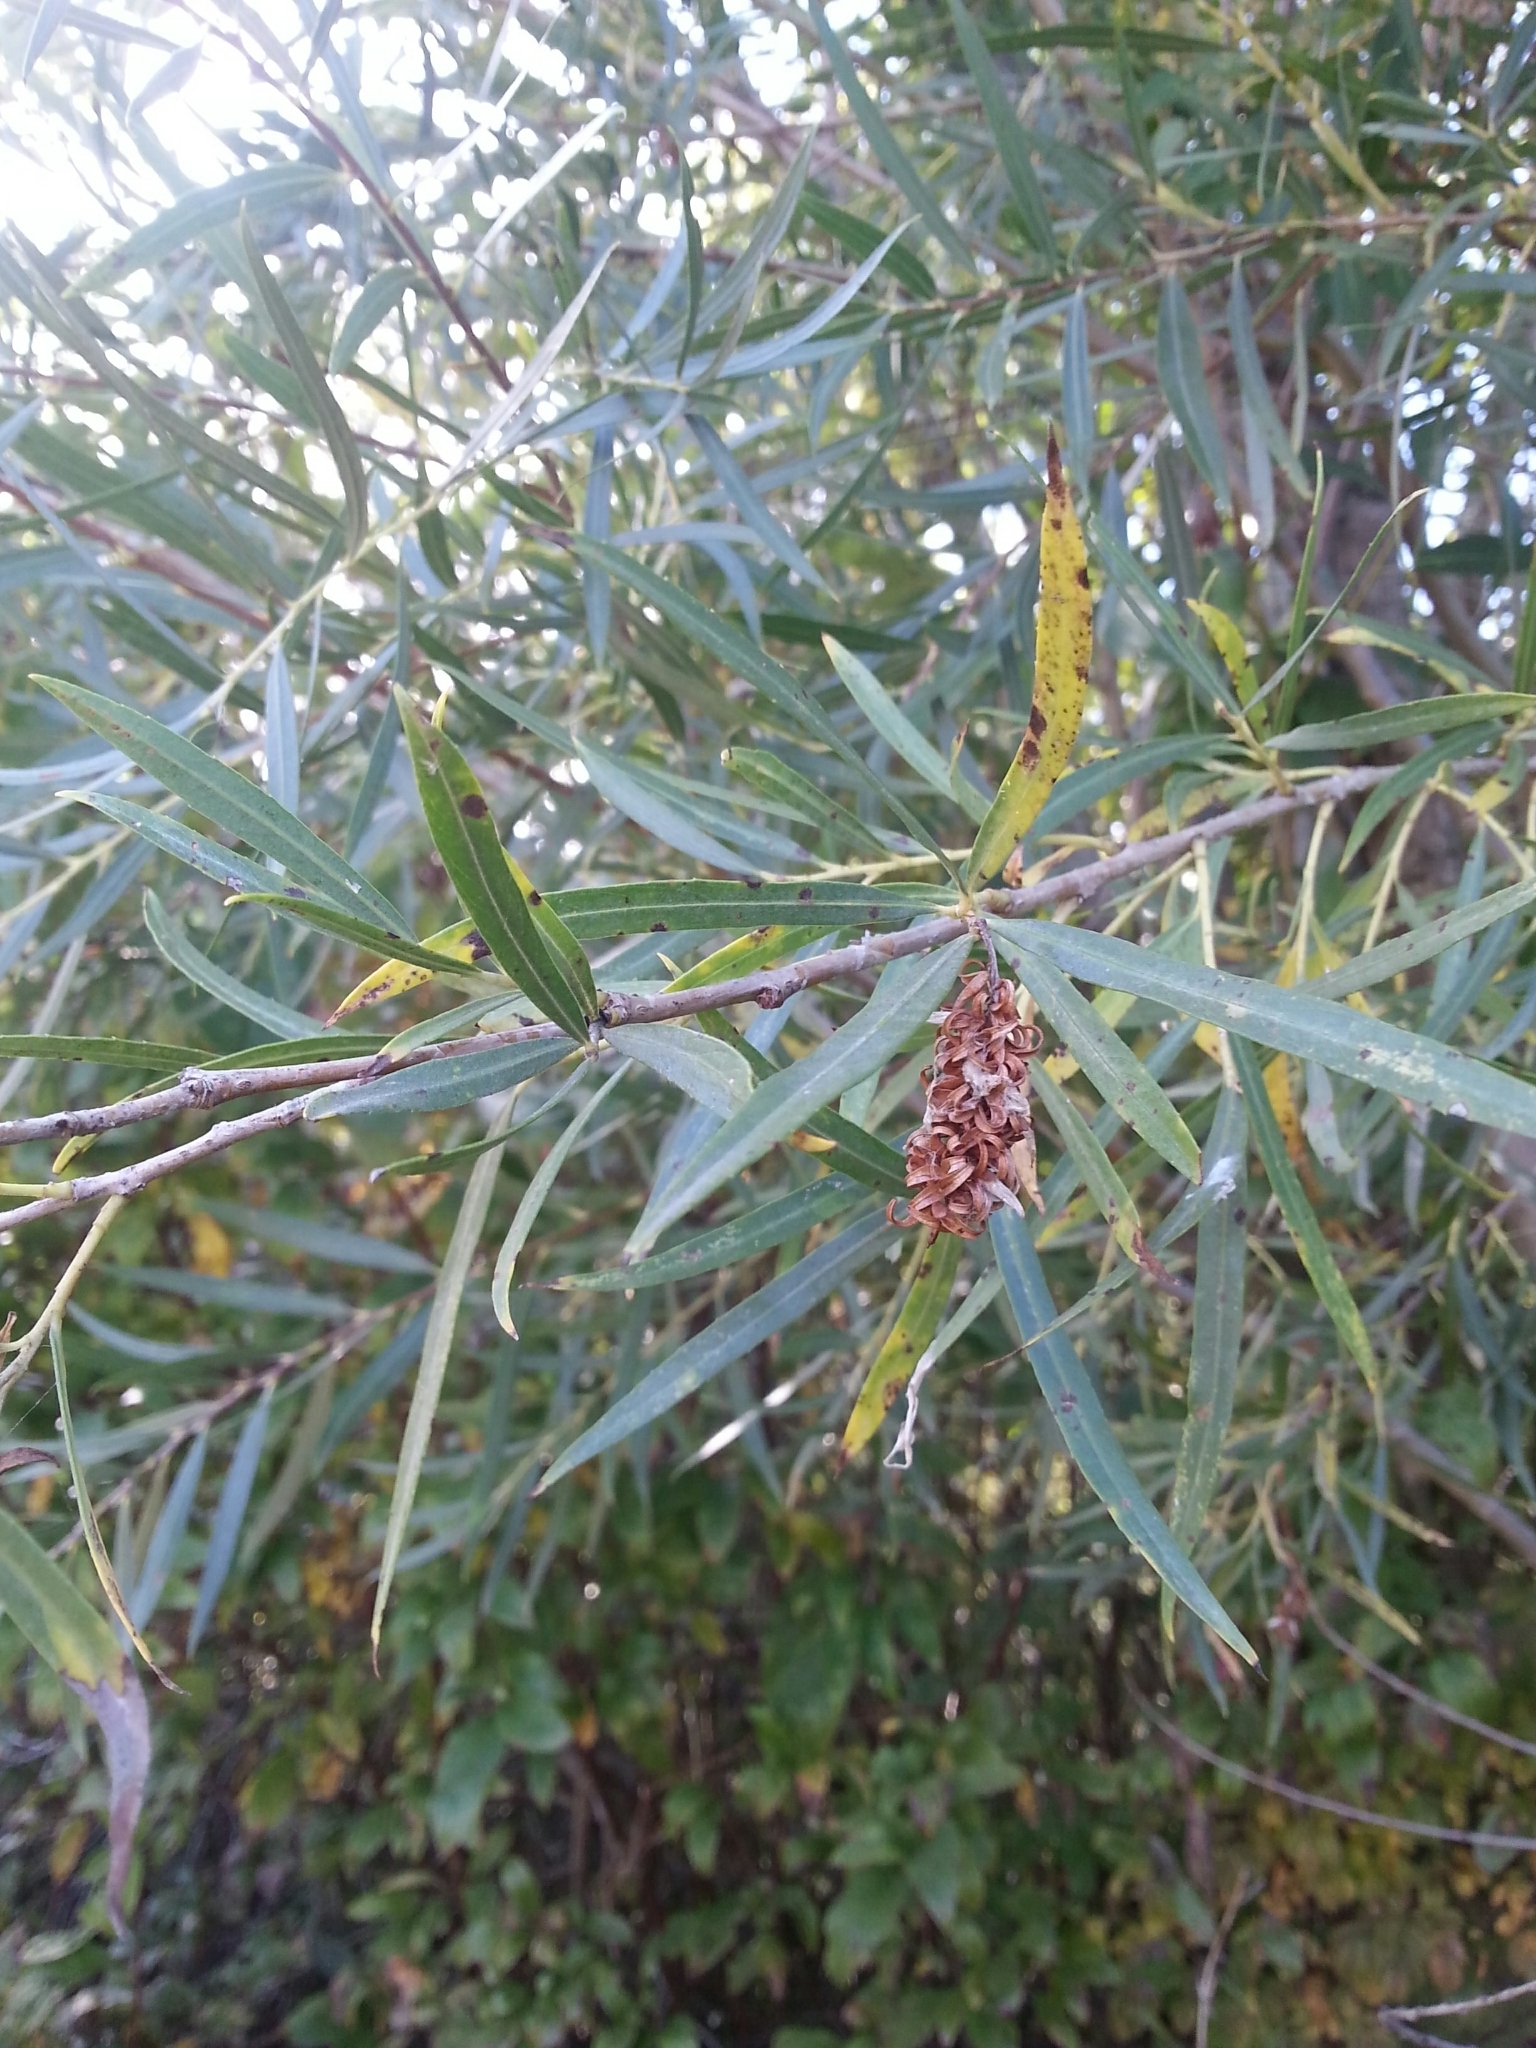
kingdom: Plantae
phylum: Tracheophyta
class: Magnoliopsida
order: Malpighiales
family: Salicaceae
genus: Salix
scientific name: Salix interior
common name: Sandbar willow
